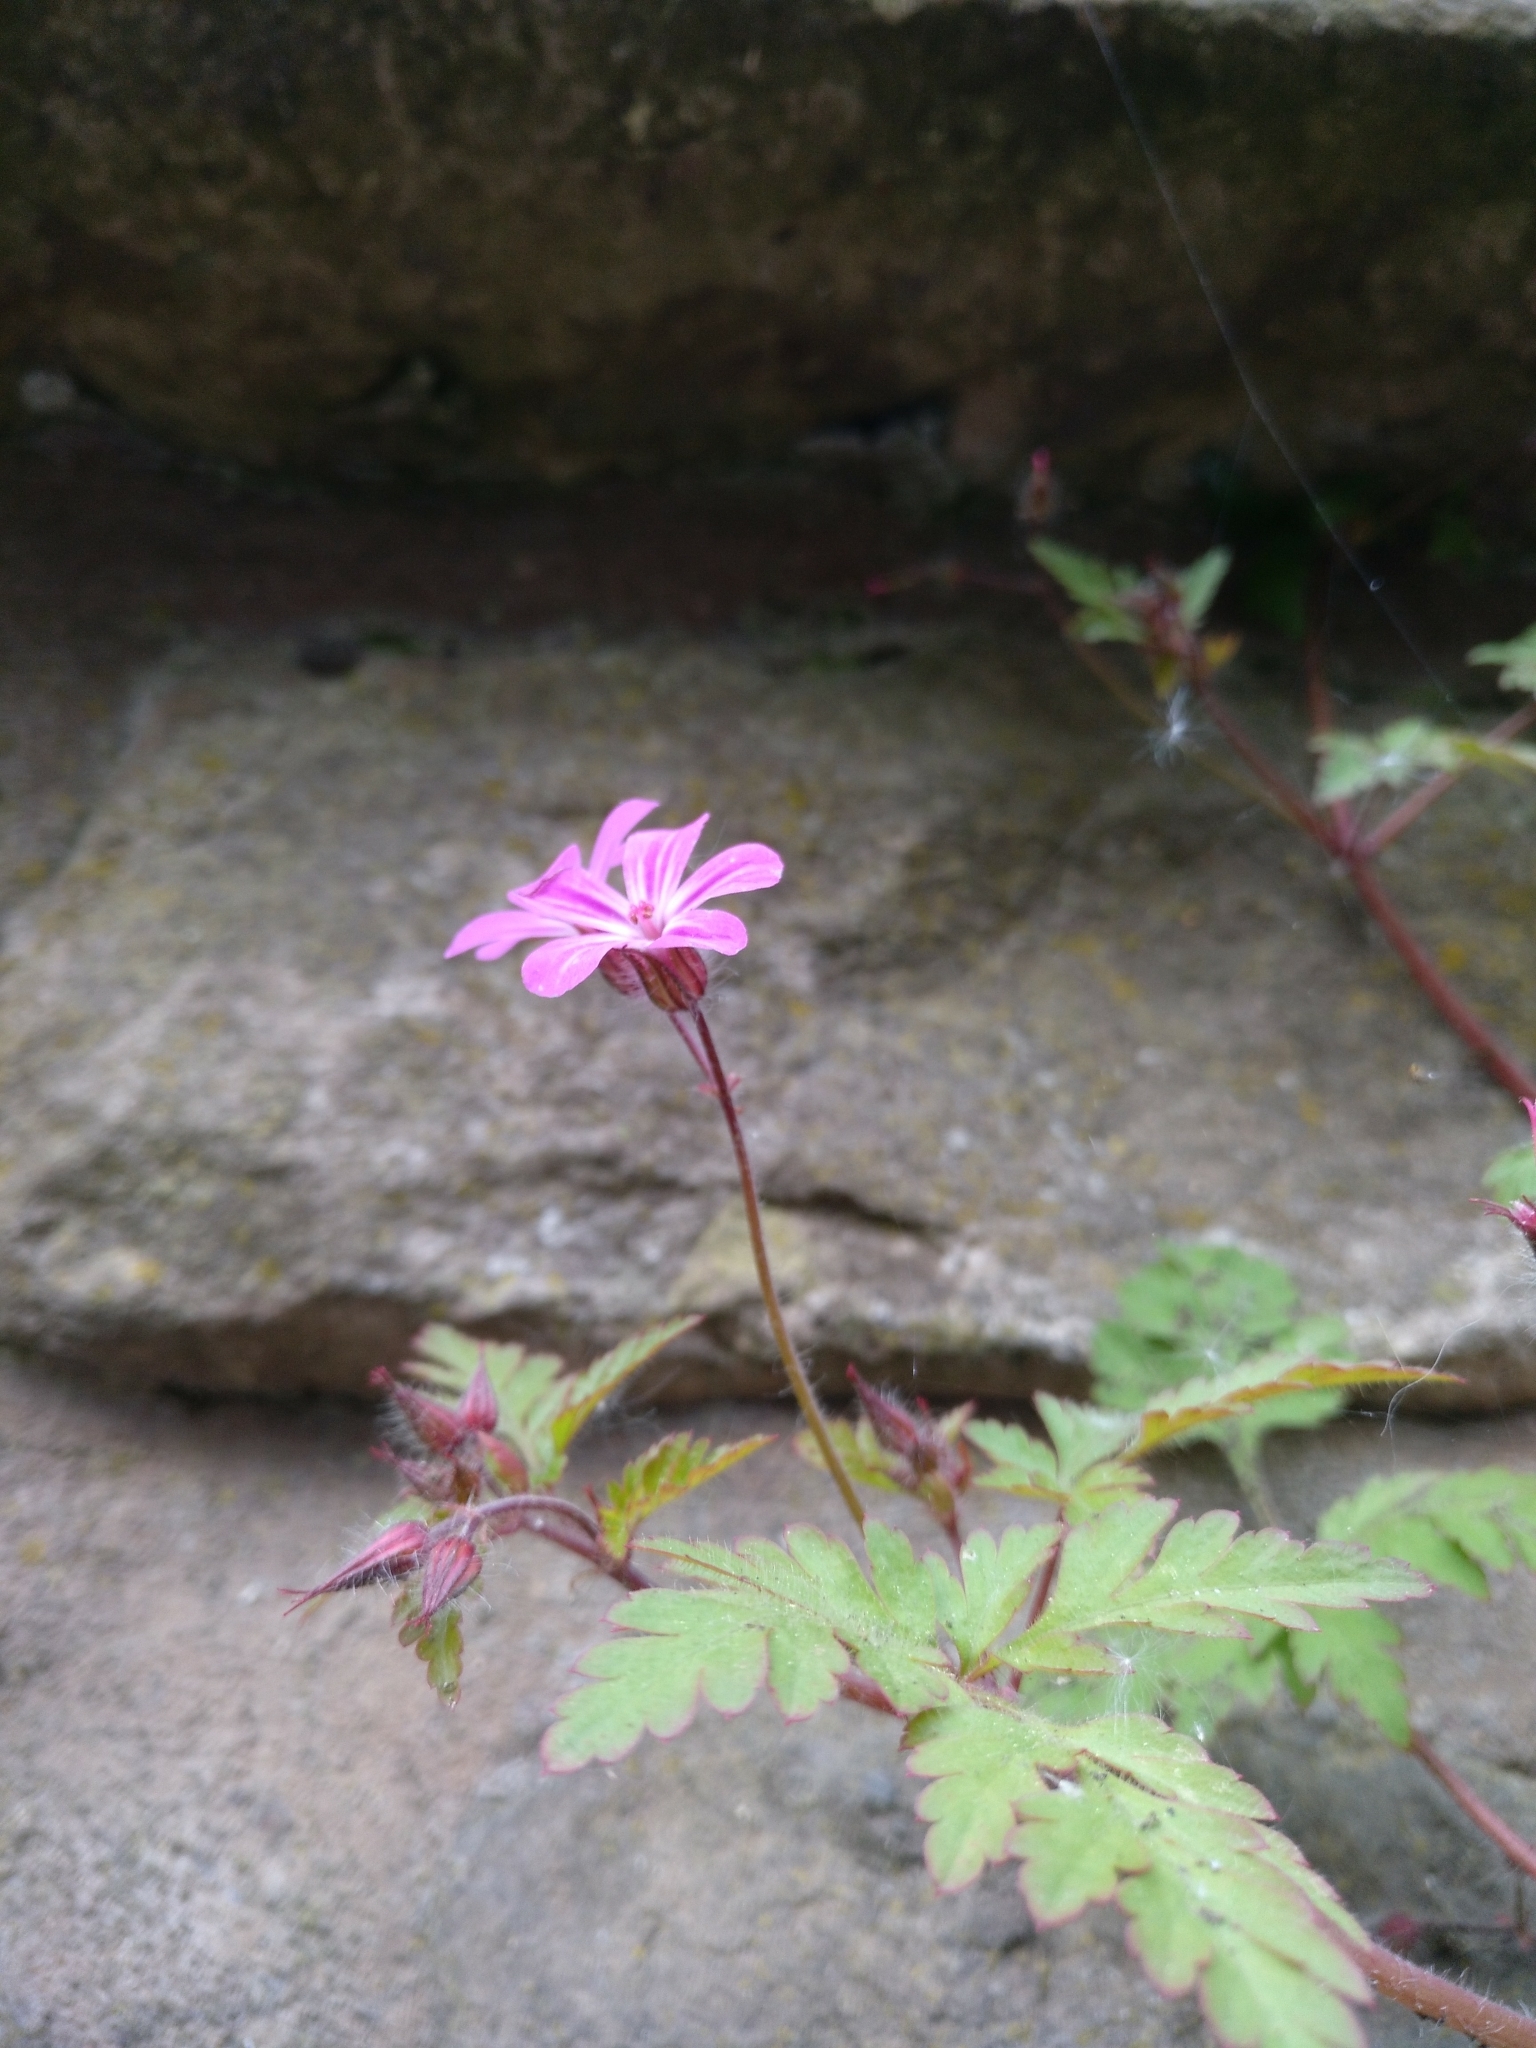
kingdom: Plantae
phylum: Tracheophyta
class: Magnoliopsida
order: Geraniales
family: Geraniaceae
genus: Geranium
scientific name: Geranium robertianum
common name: Herb-robert
